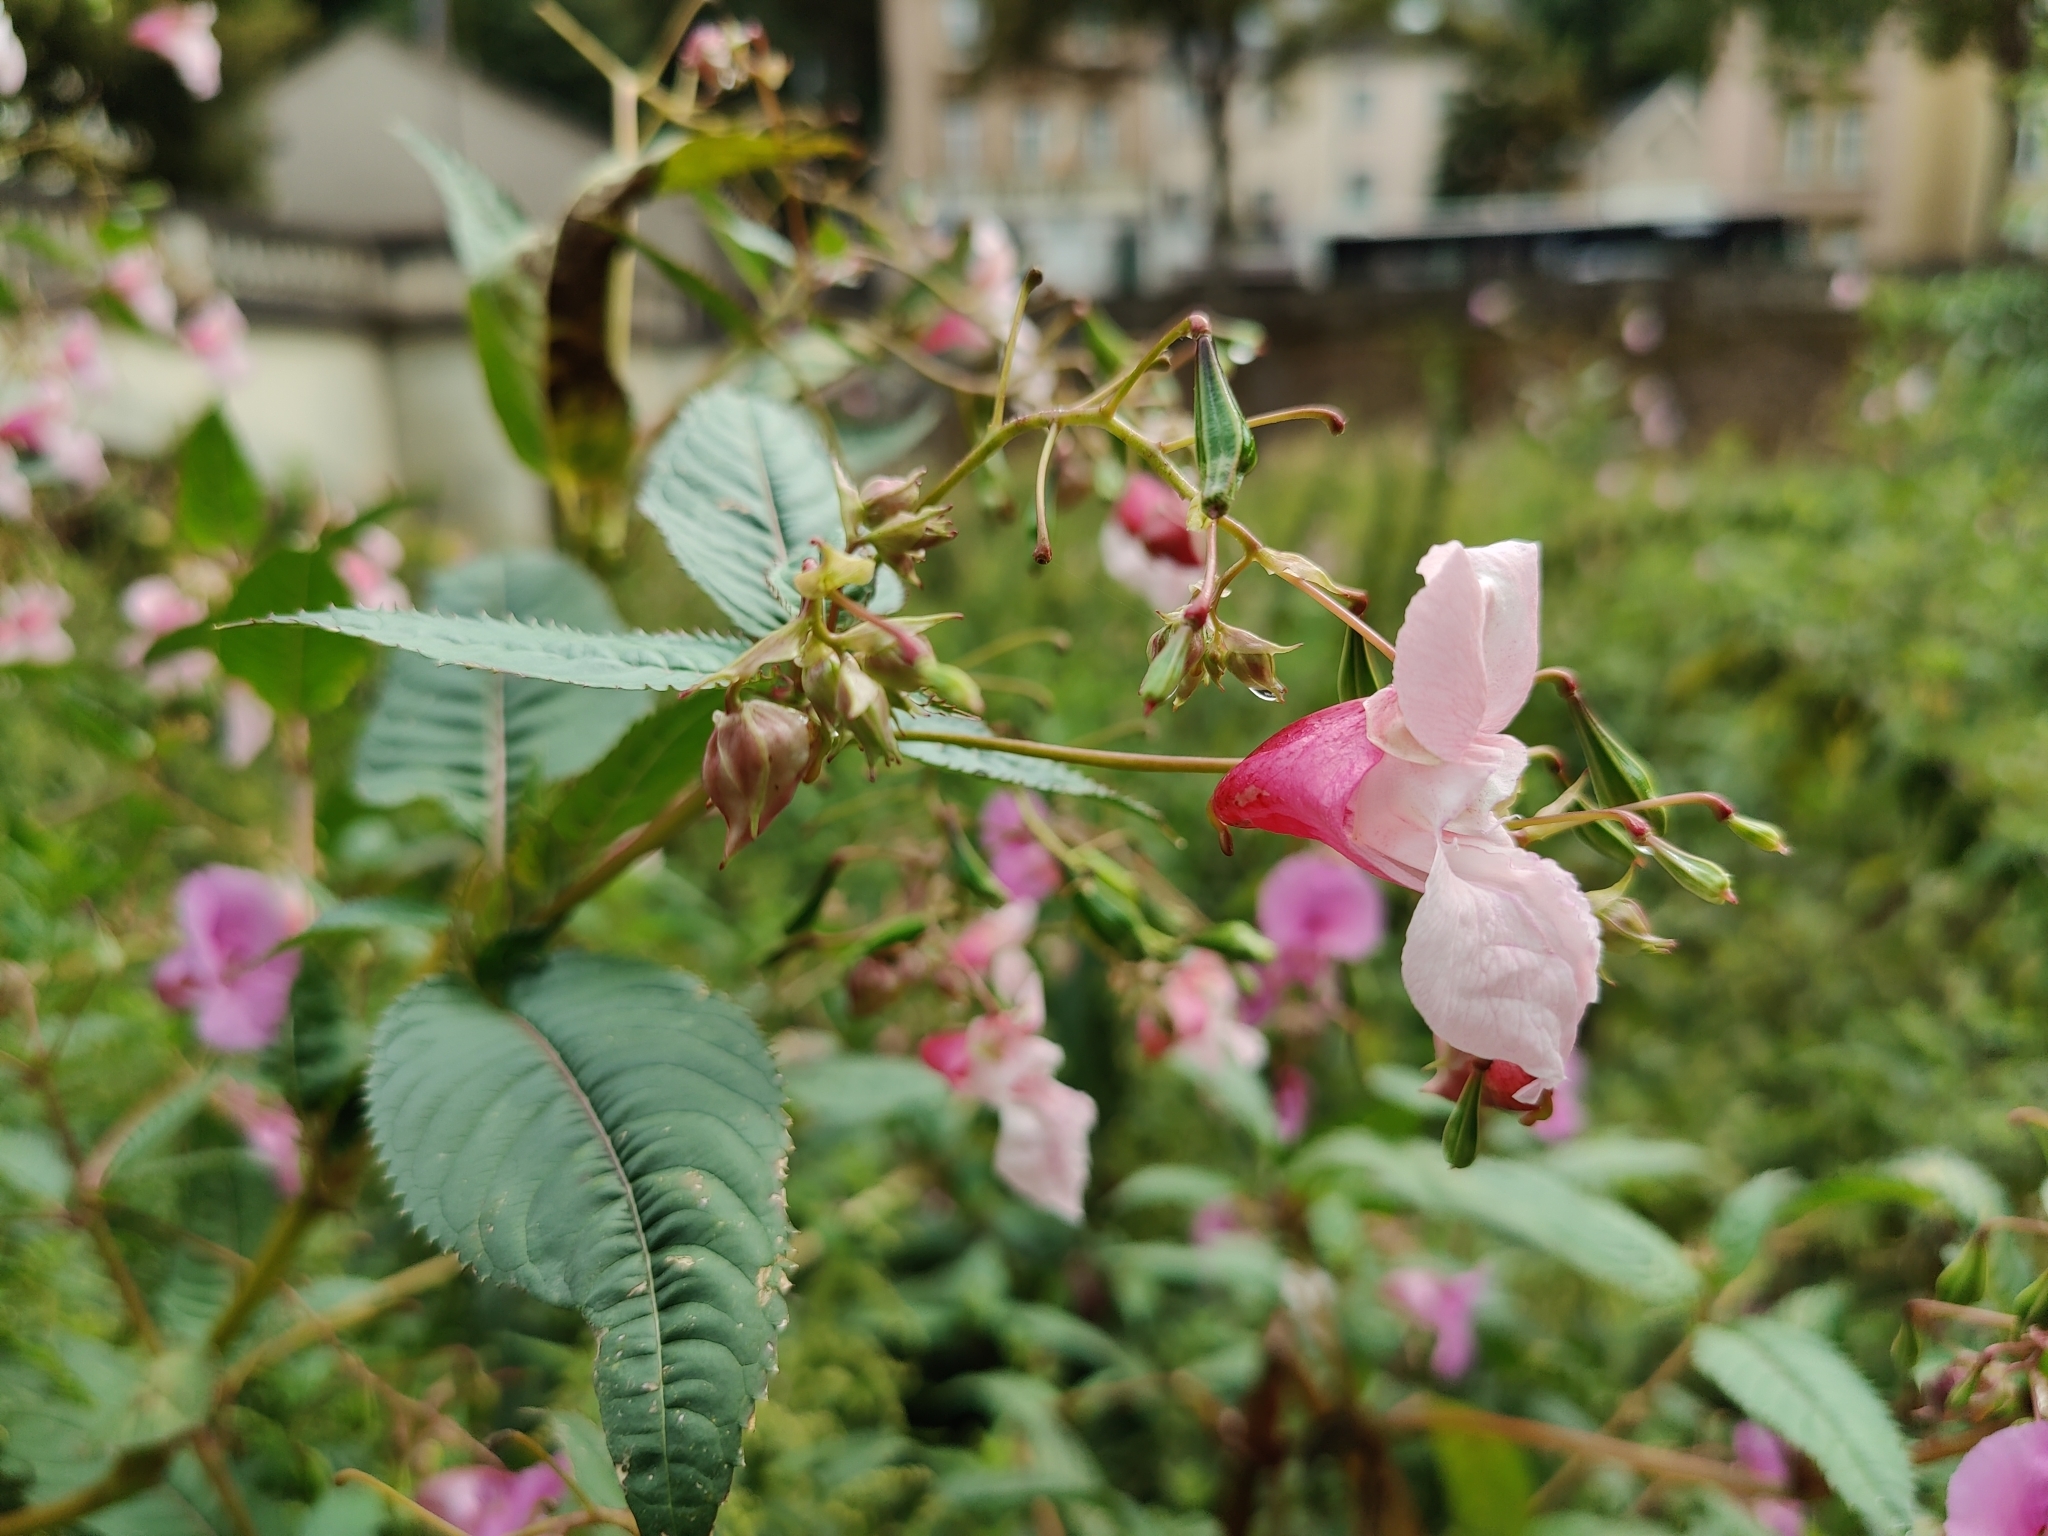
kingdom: Plantae
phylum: Tracheophyta
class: Magnoliopsida
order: Ericales
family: Balsaminaceae
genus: Impatiens
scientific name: Impatiens glandulifera
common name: Himalayan balsam
